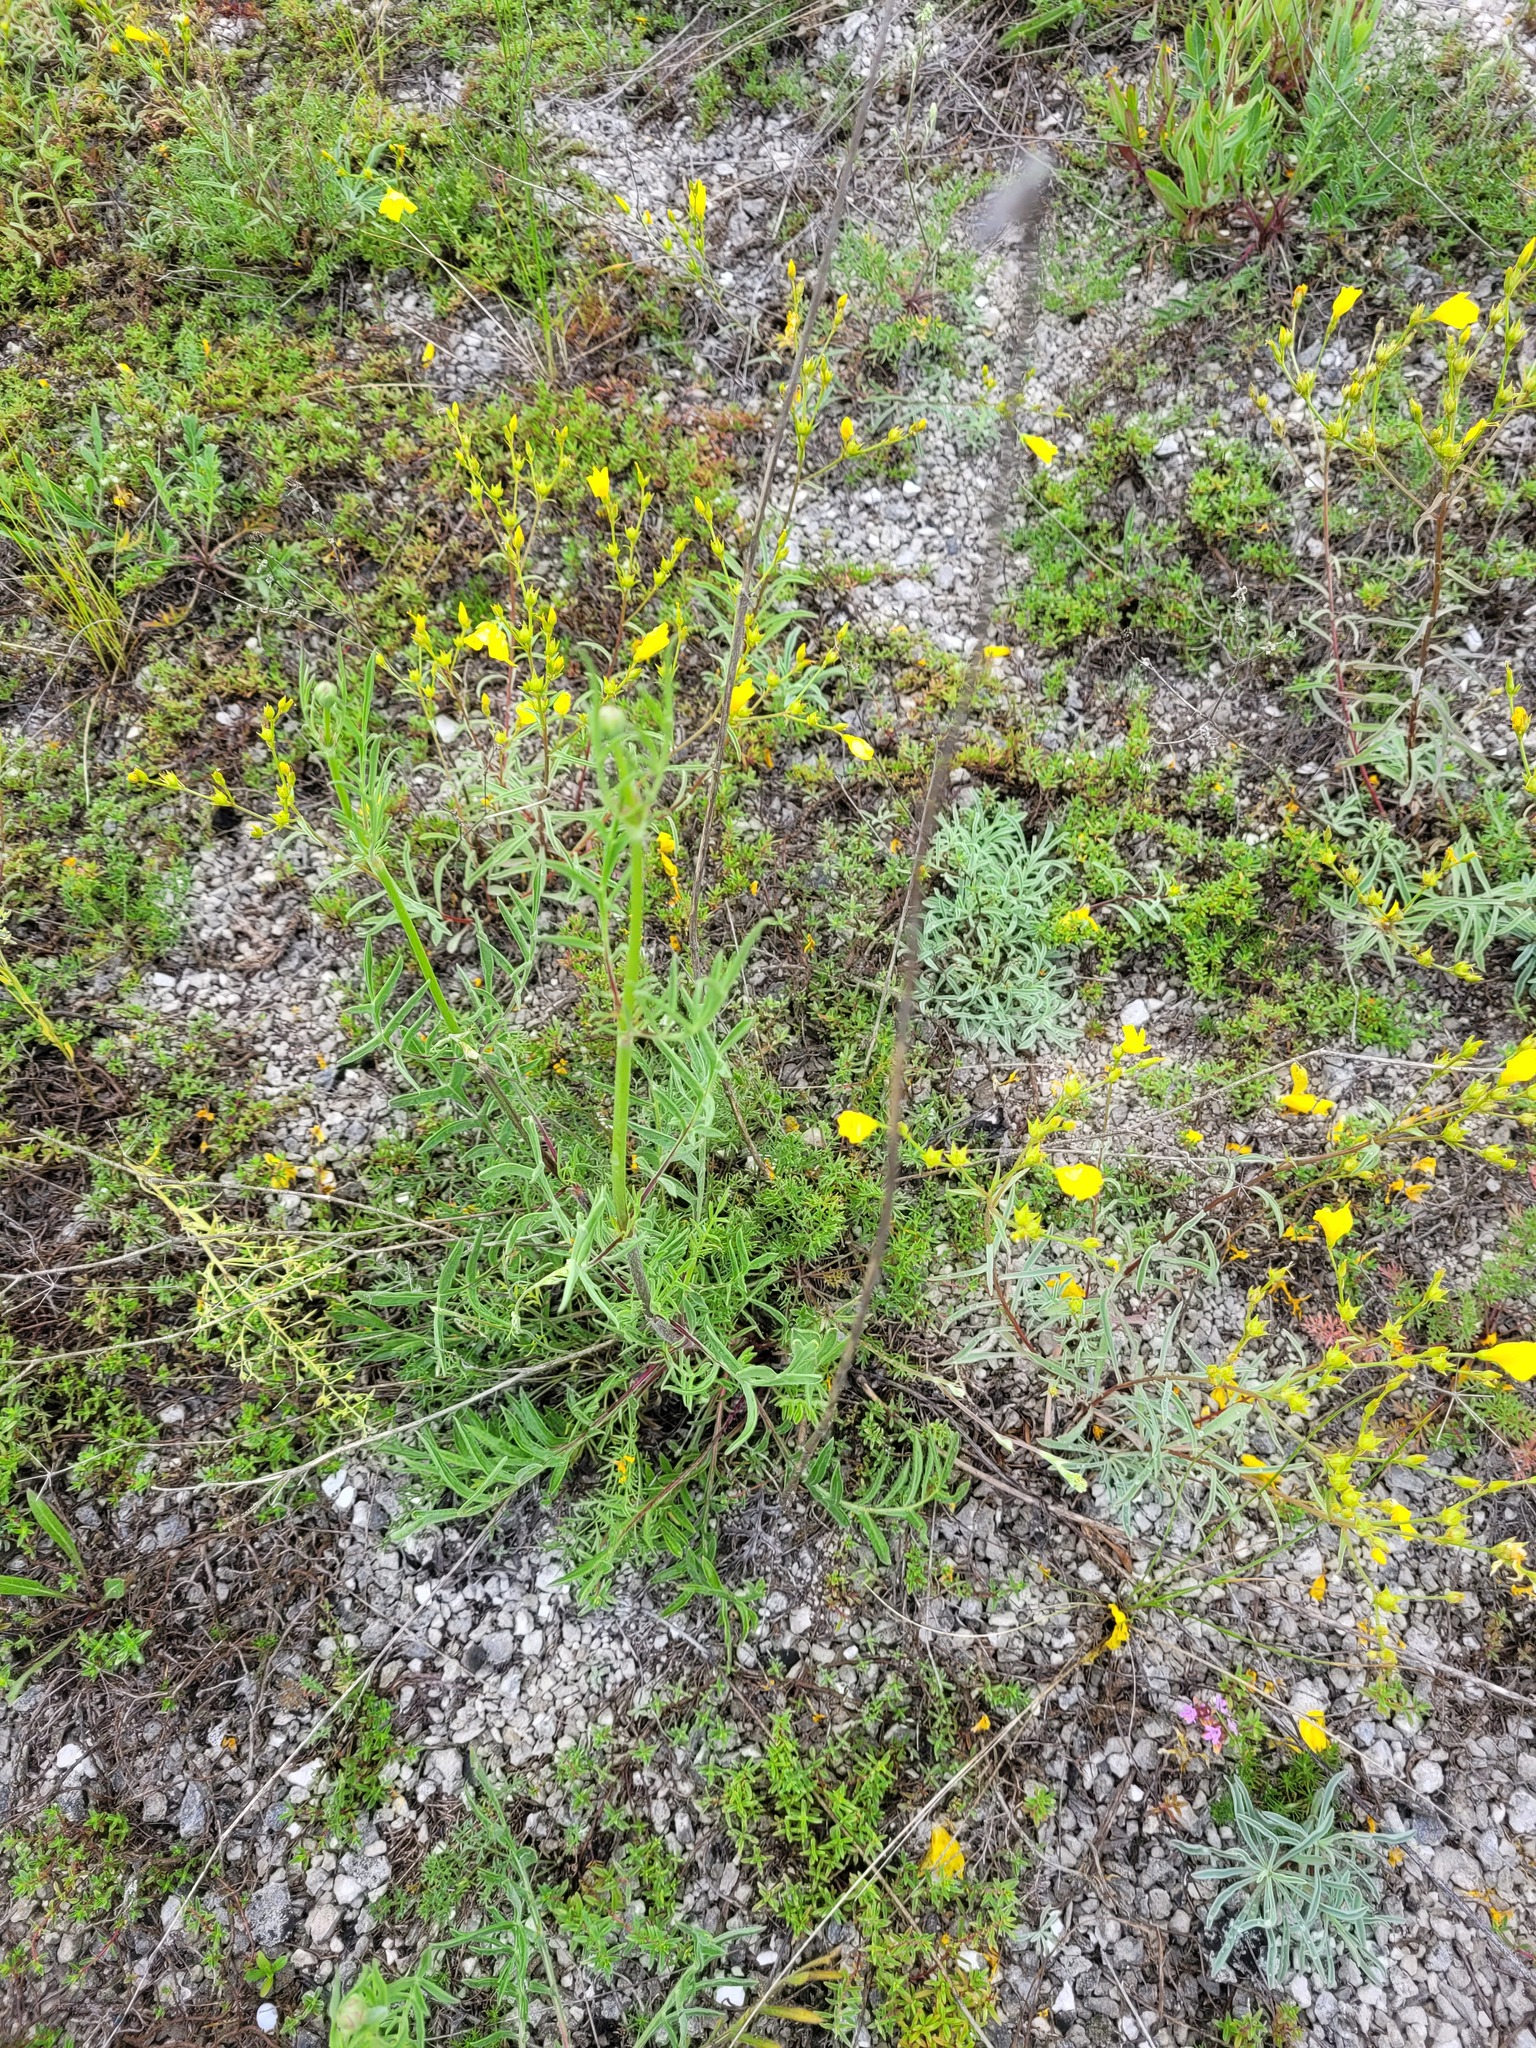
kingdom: Plantae
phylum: Tracheophyta
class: Magnoliopsida
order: Dipsacales
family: Caprifoliaceae
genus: Cephalaria
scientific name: Cephalaria uralensis
